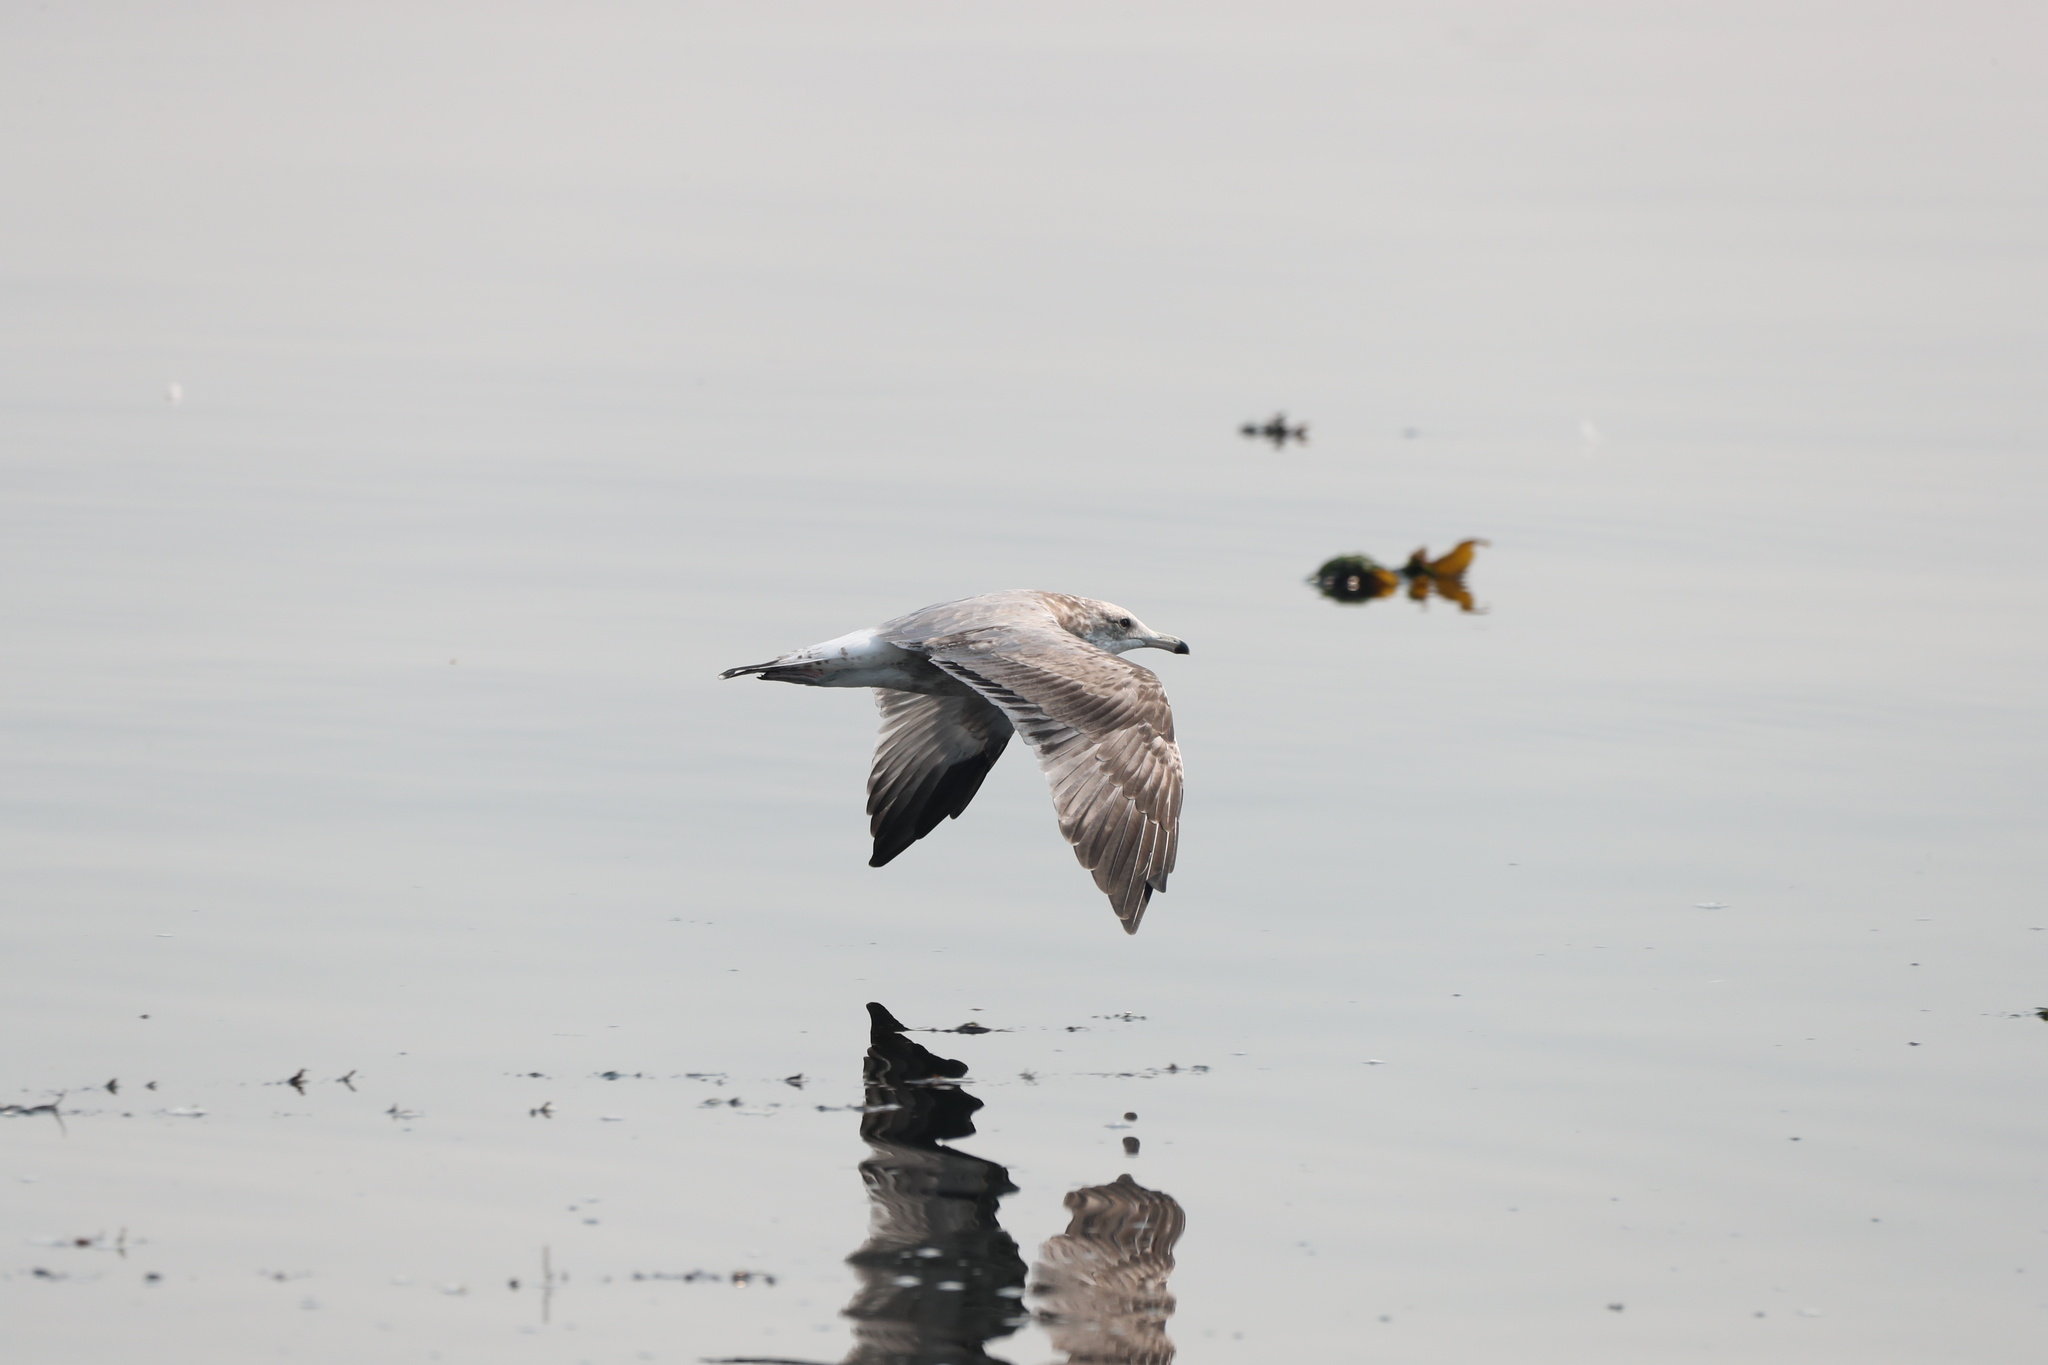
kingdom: Animalia
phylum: Chordata
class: Aves
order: Charadriiformes
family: Laridae
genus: Larus
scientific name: Larus californicus
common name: California gull
